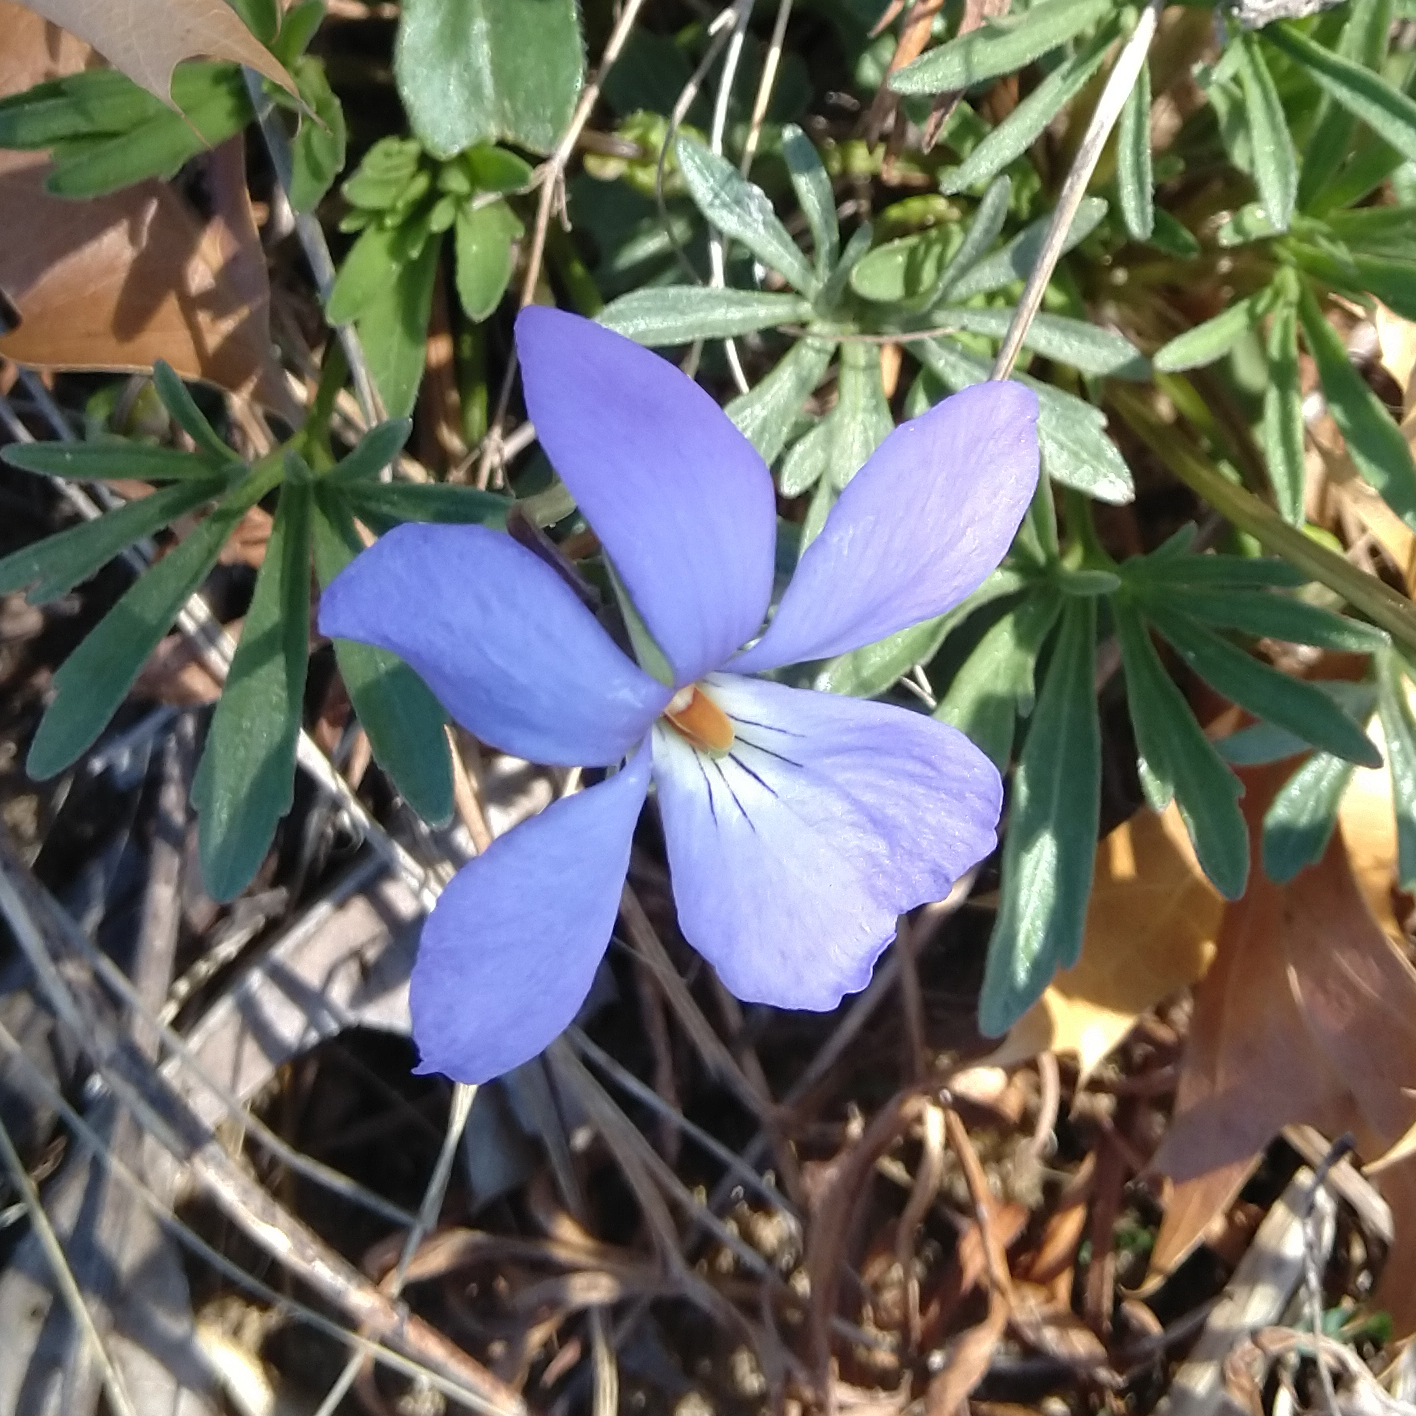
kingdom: Plantae
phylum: Tracheophyta
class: Magnoliopsida
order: Malpighiales
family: Violaceae
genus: Viola
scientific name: Viola pedata
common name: Pansy violet
